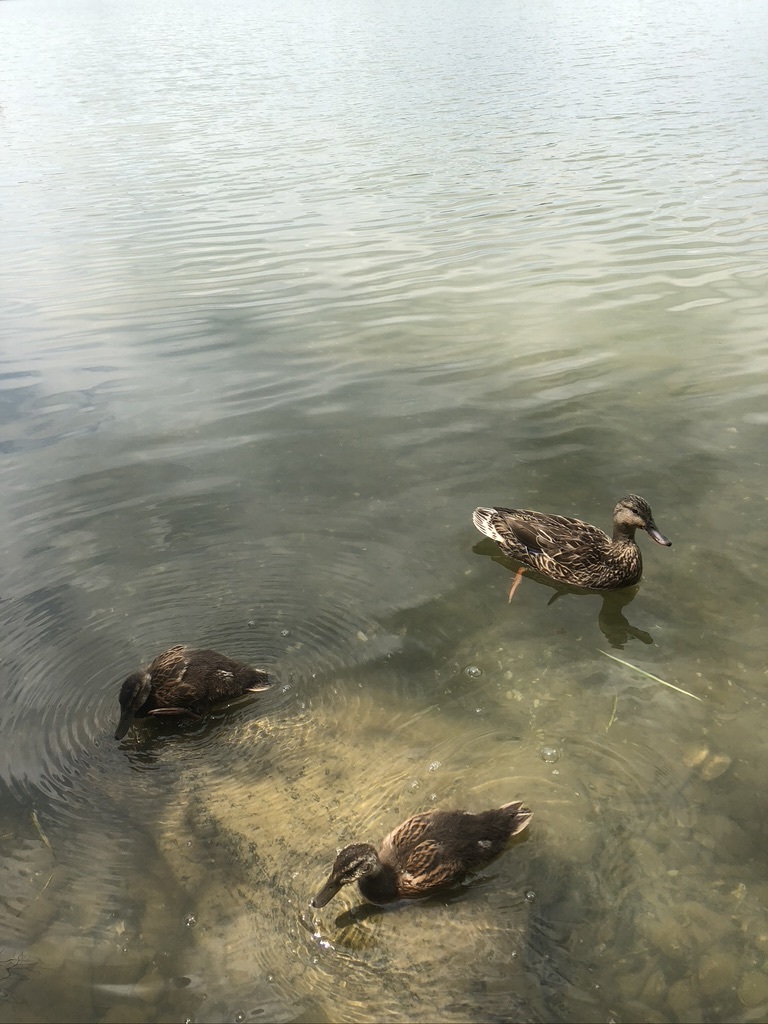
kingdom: Animalia
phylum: Chordata
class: Aves
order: Anseriformes
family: Anatidae
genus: Anas
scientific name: Anas platyrhynchos
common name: Mallard
